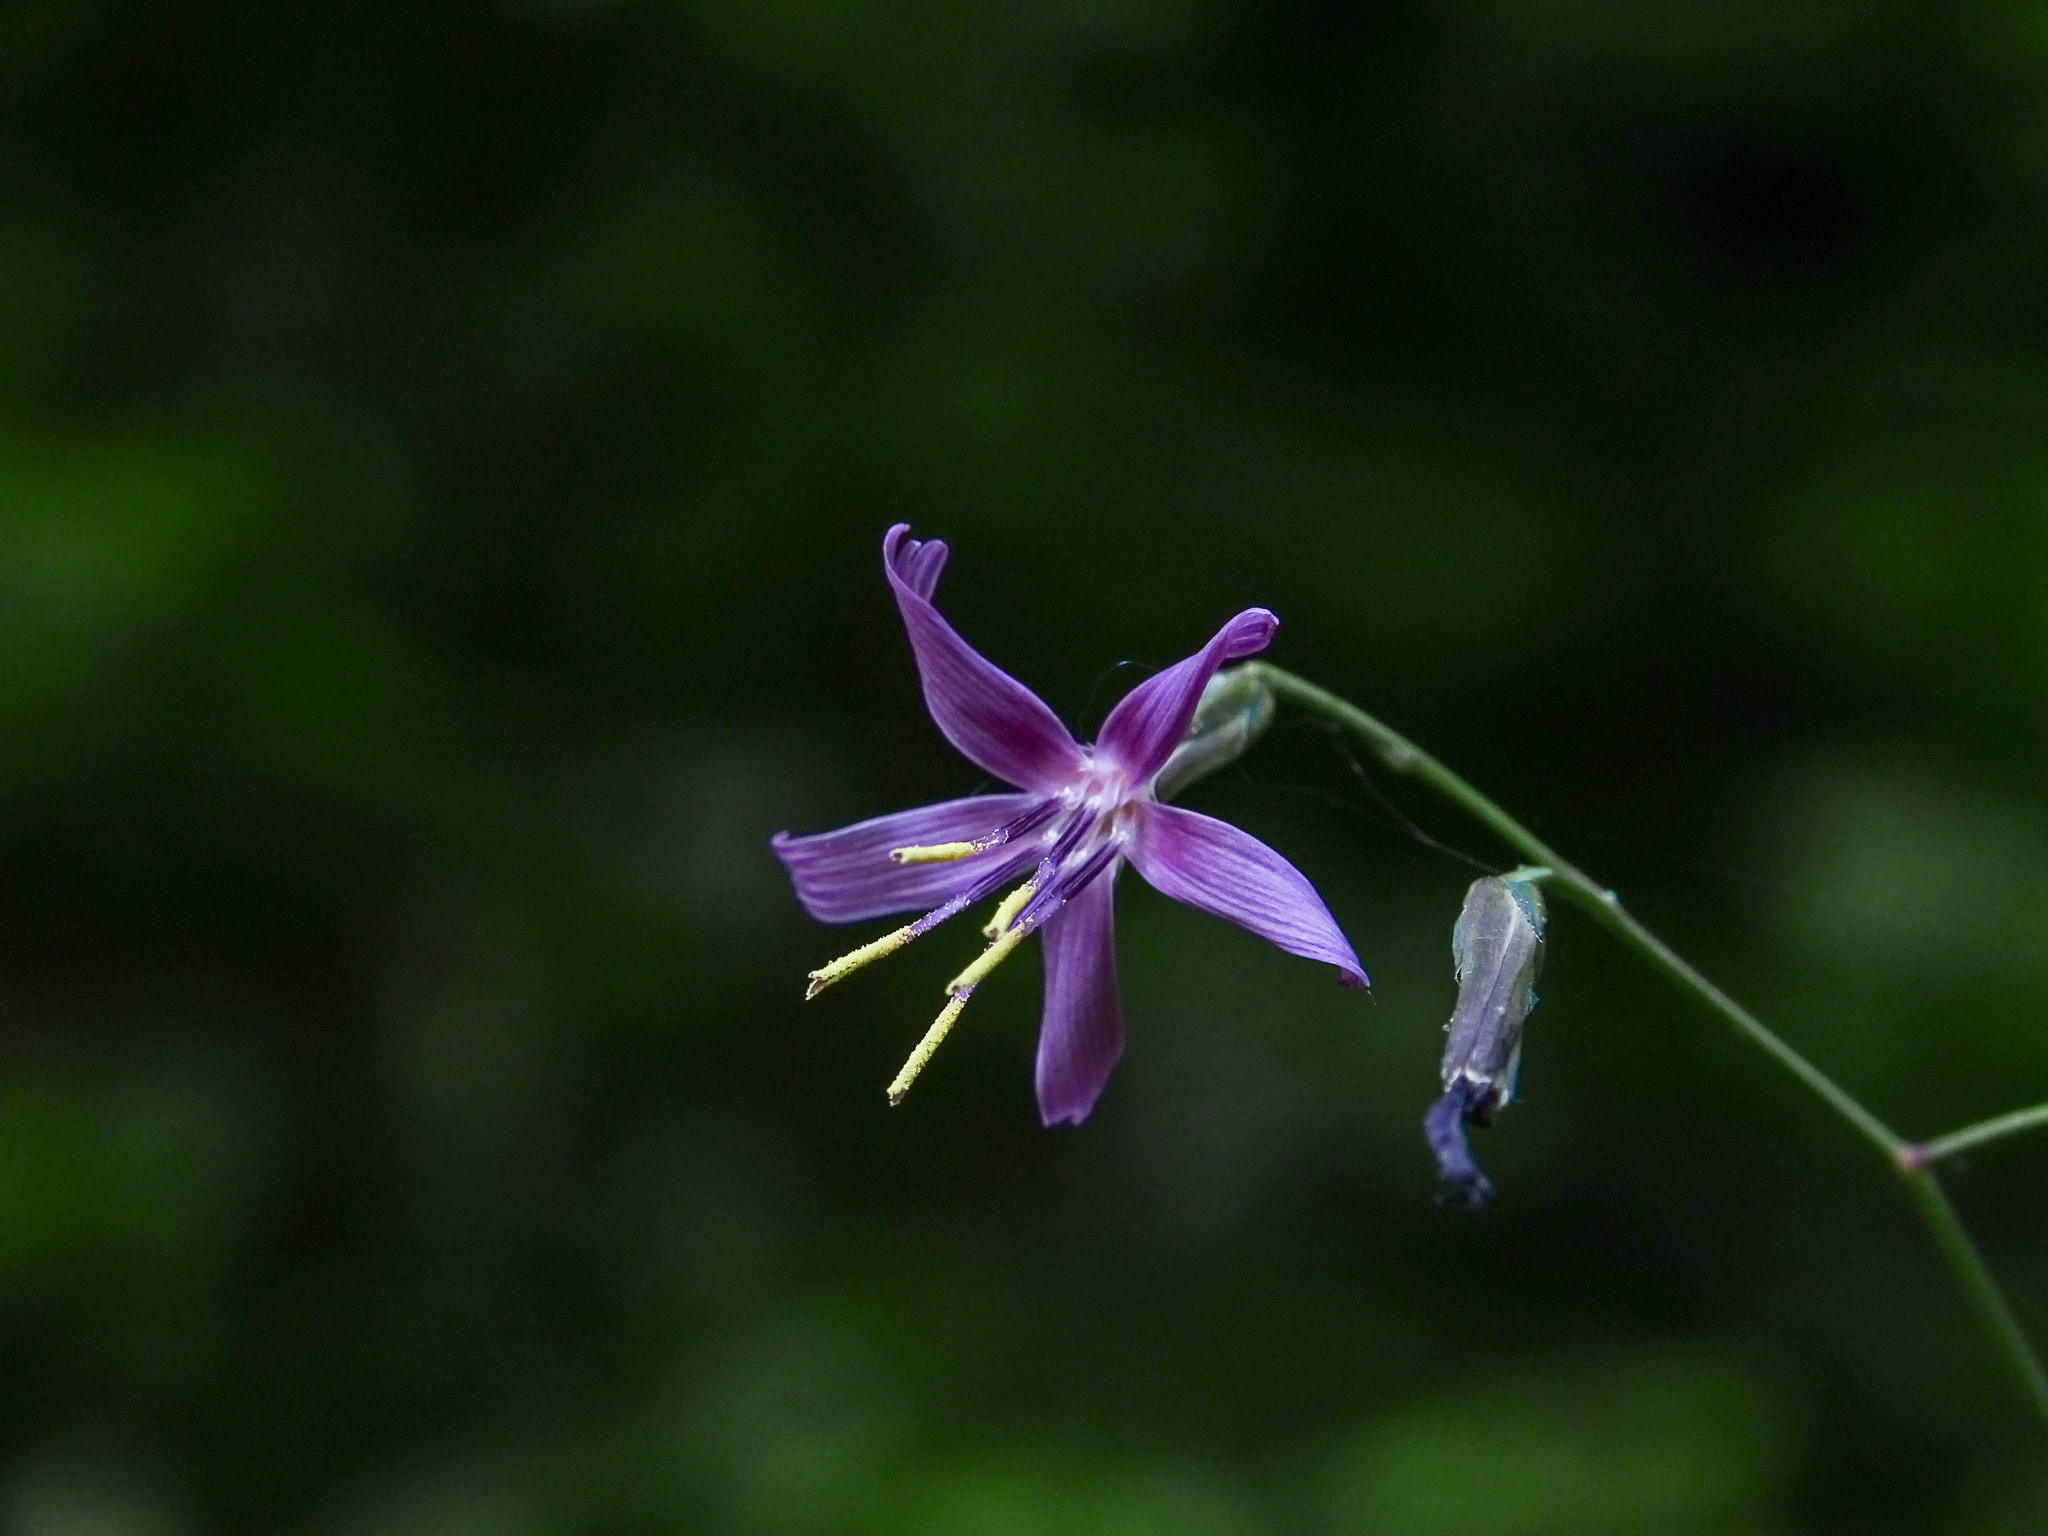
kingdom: Plantae
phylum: Tracheophyta
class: Magnoliopsida
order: Asterales
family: Asteraceae
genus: Prenanthes
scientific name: Prenanthes purpurea
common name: Purple lettuce
